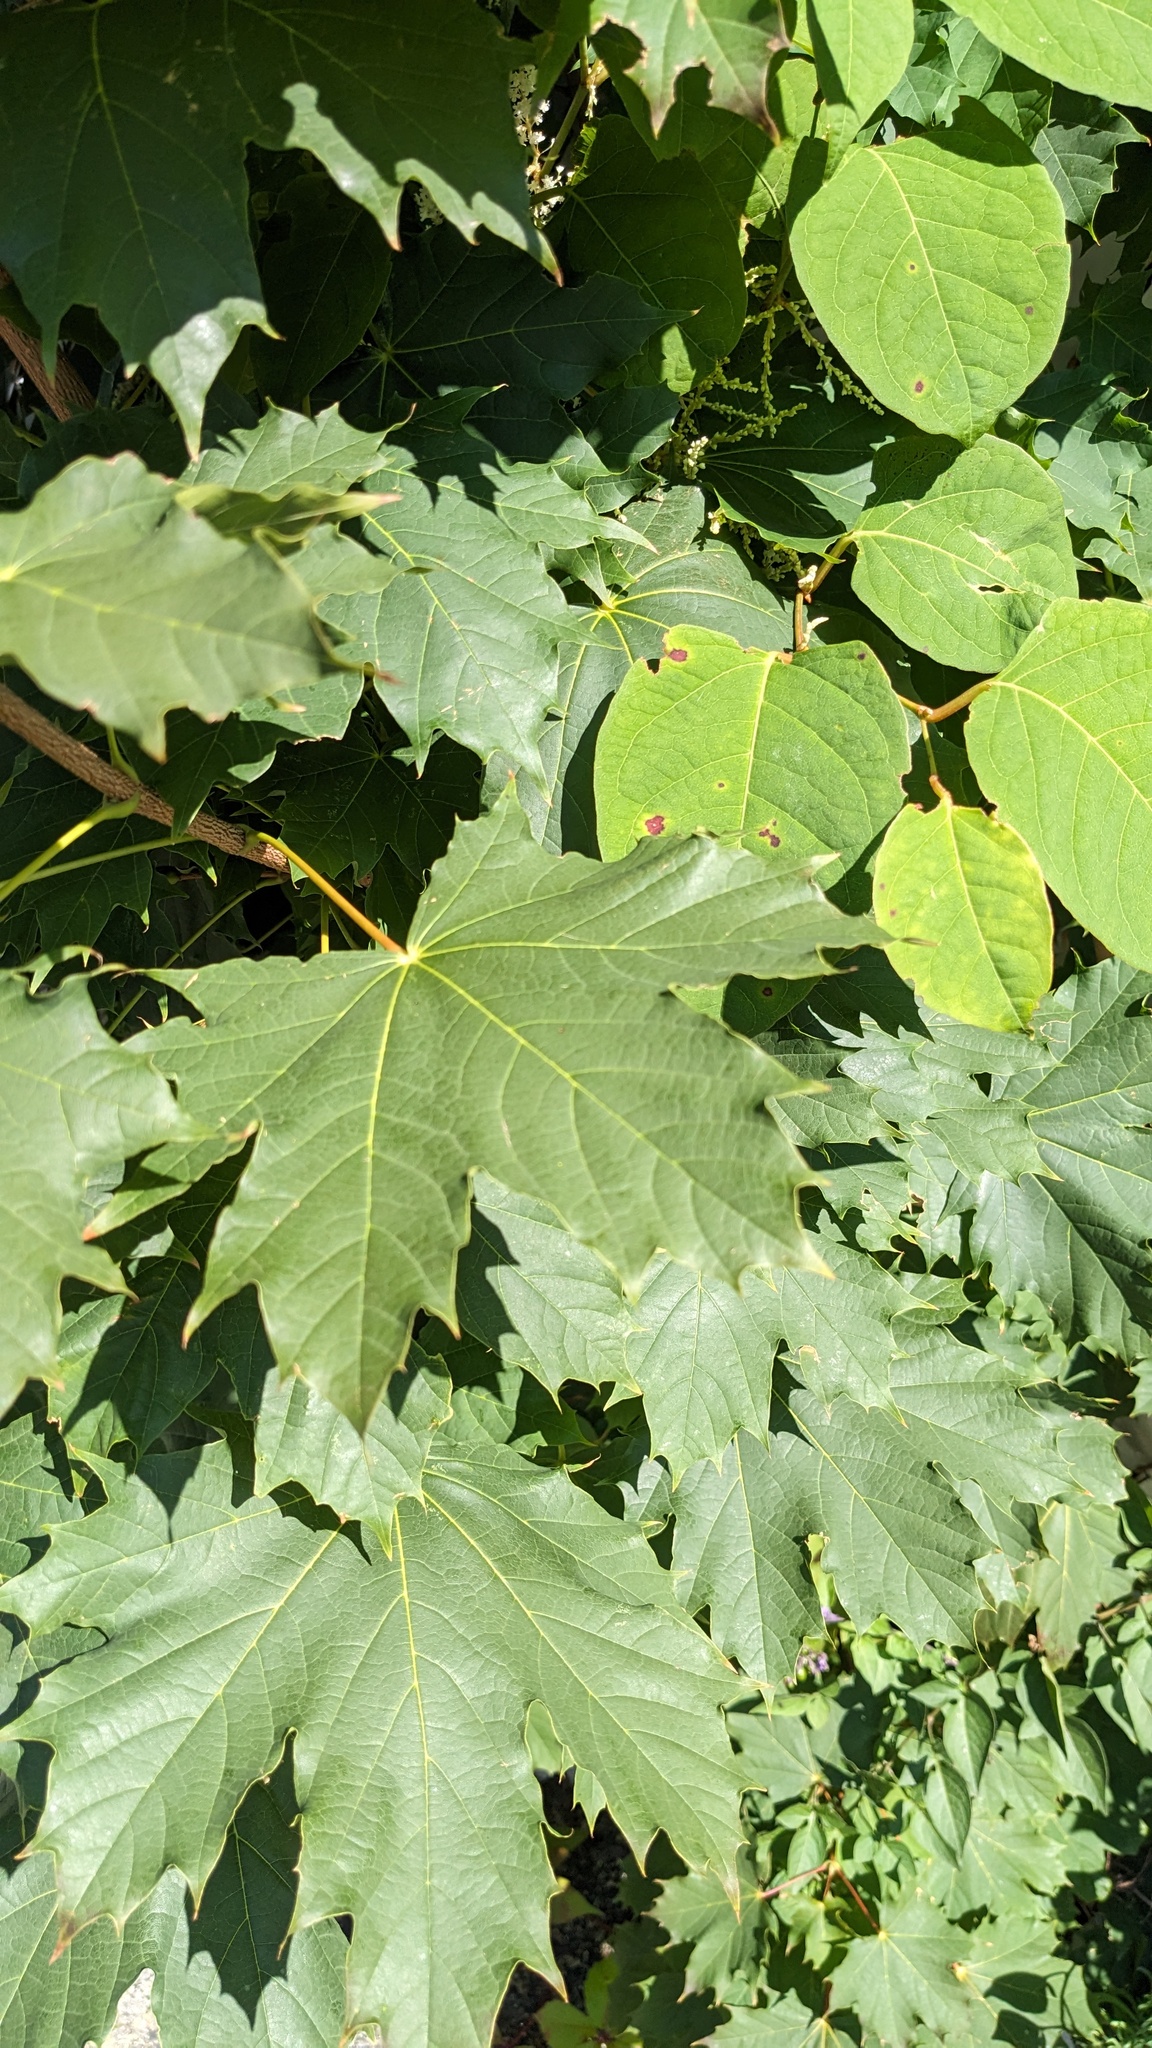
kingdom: Plantae
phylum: Tracheophyta
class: Magnoliopsida
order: Sapindales
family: Sapindaceae
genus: Acer
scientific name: Acer platanoides
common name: Norway maple
